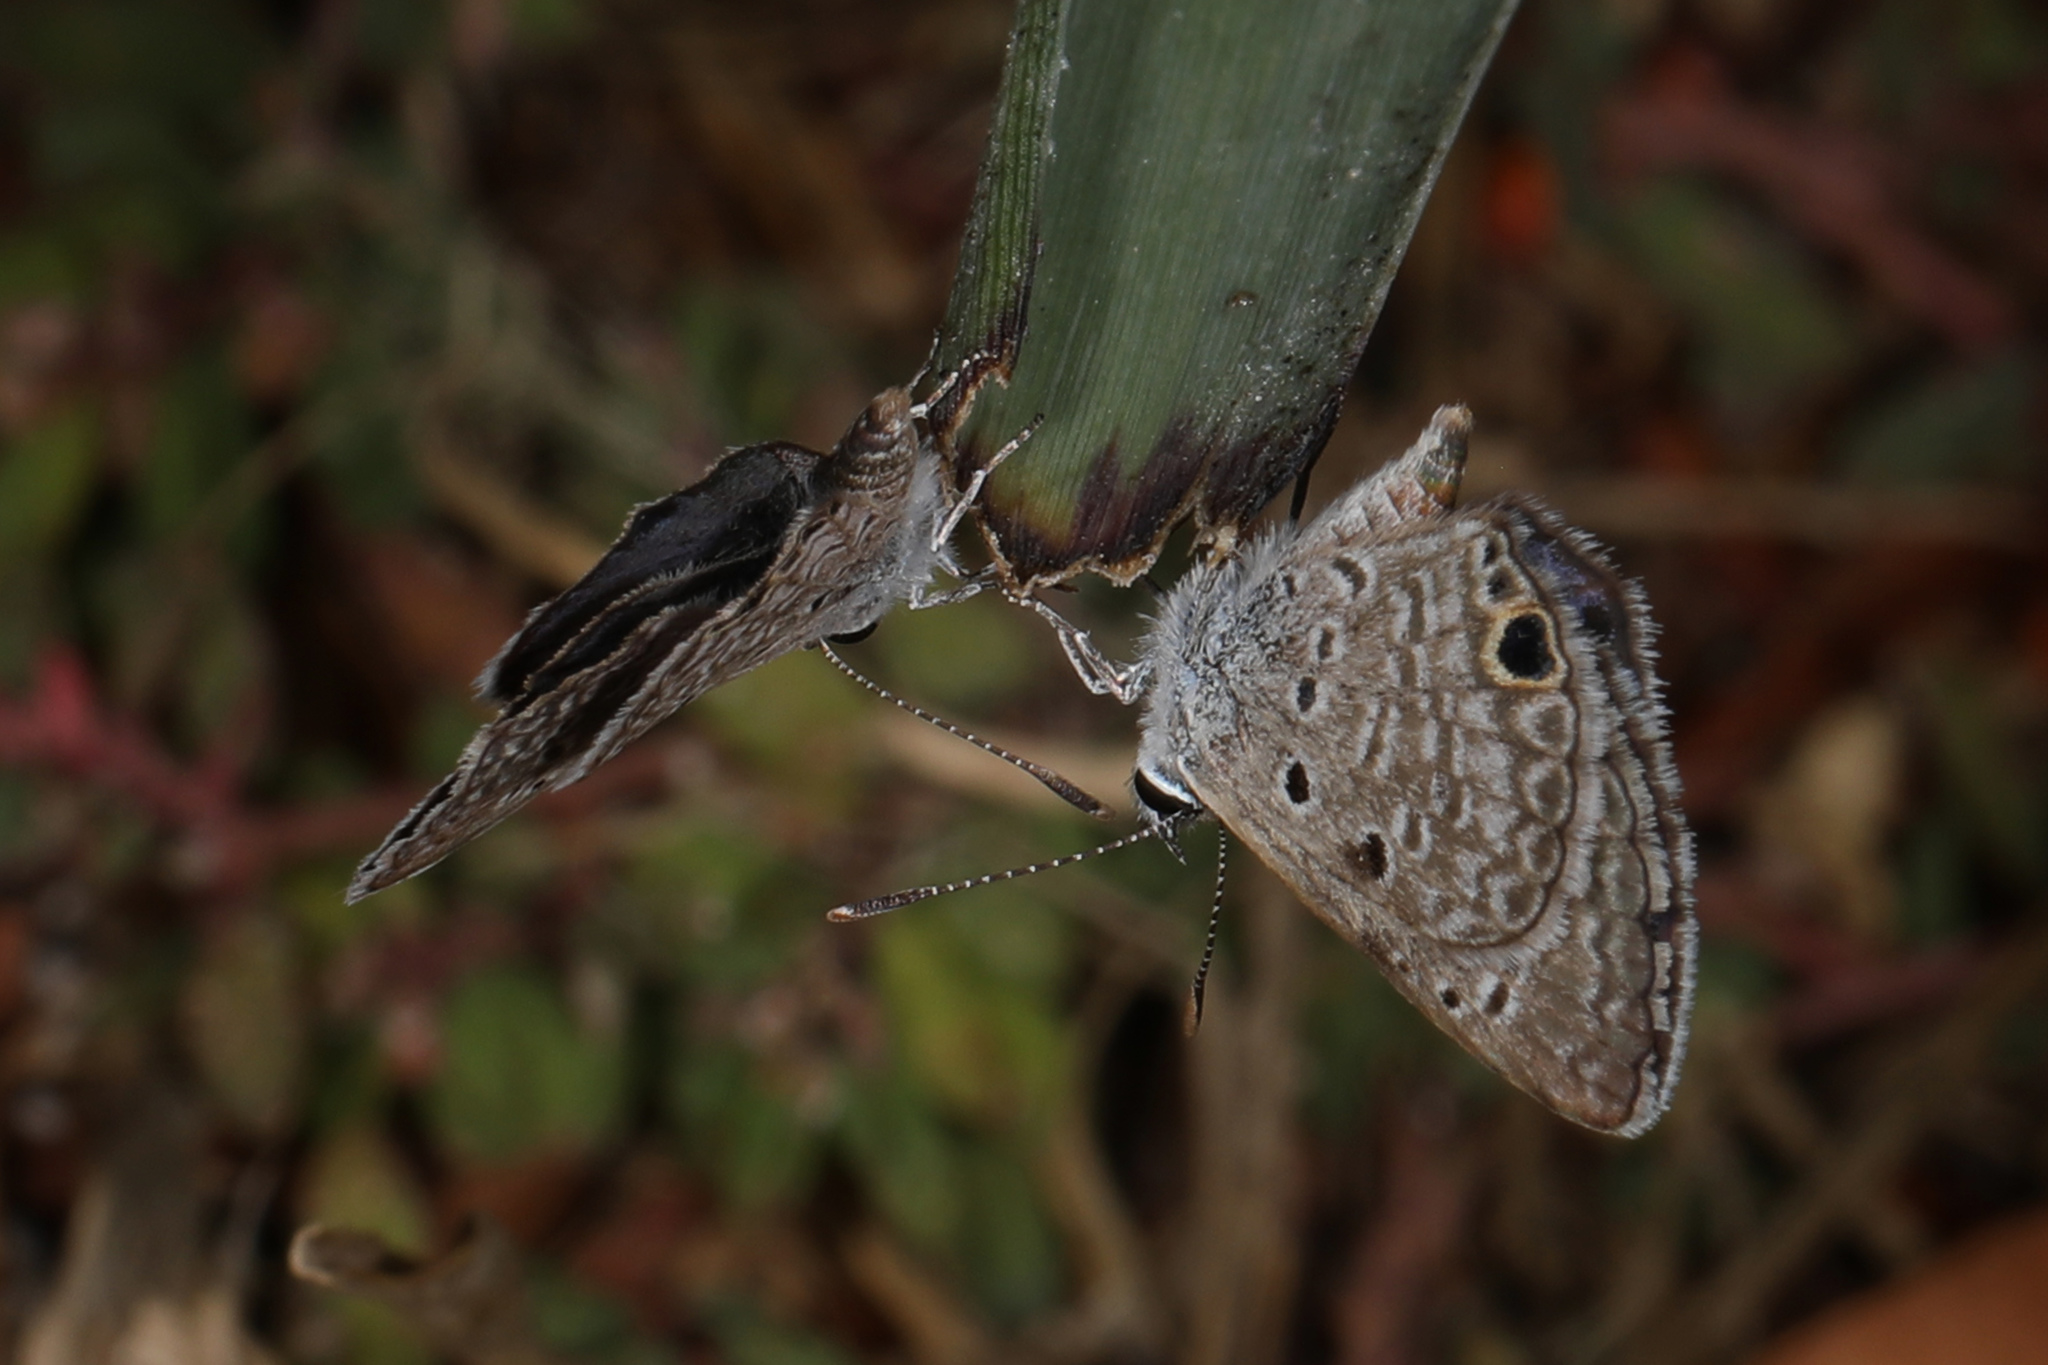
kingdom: Animalia
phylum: Arthropoda
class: Insecta
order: Lepidoptera
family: Lycaenidae
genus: Hemiargus
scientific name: Hemiargus ceraunus
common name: Ceraunus blue
